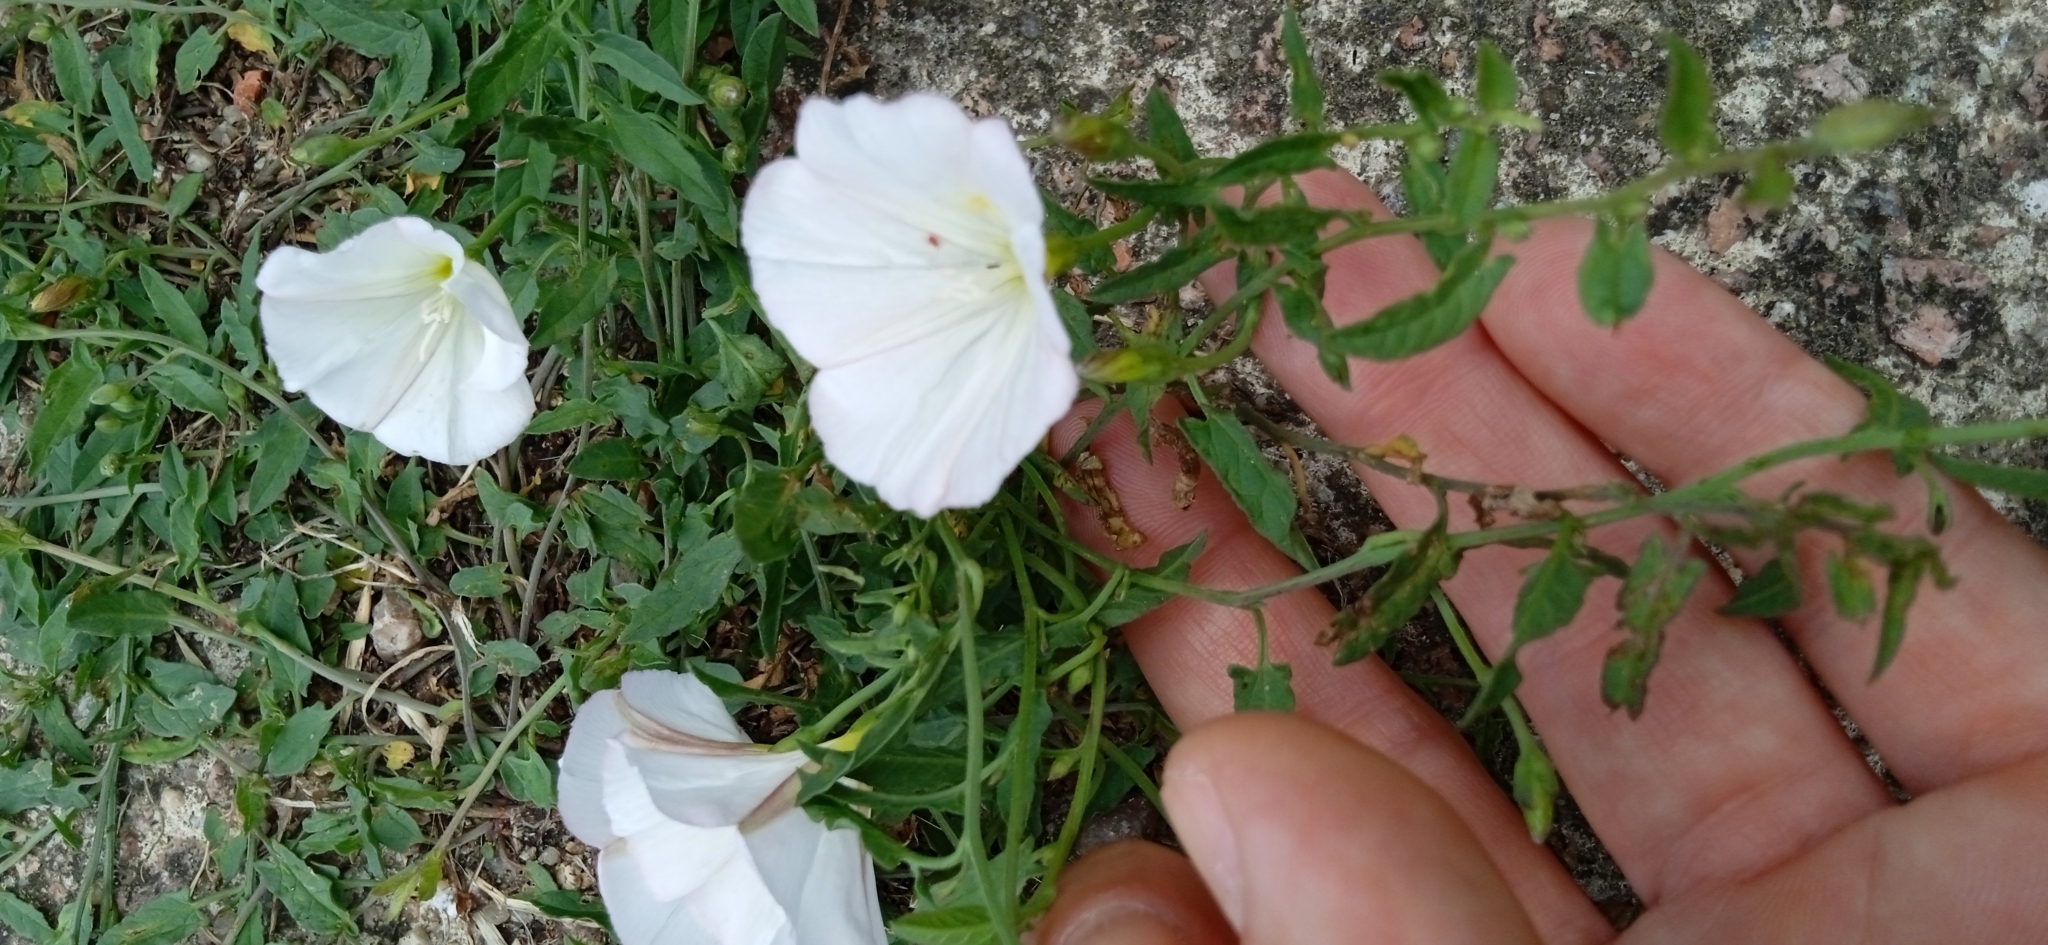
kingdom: Plantae
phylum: Tracheophyta
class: Magnoliopsida
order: Solanales
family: Convolvulaceae
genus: Convolvulus
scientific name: Convolvulus arvensis
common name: Field bindweed
